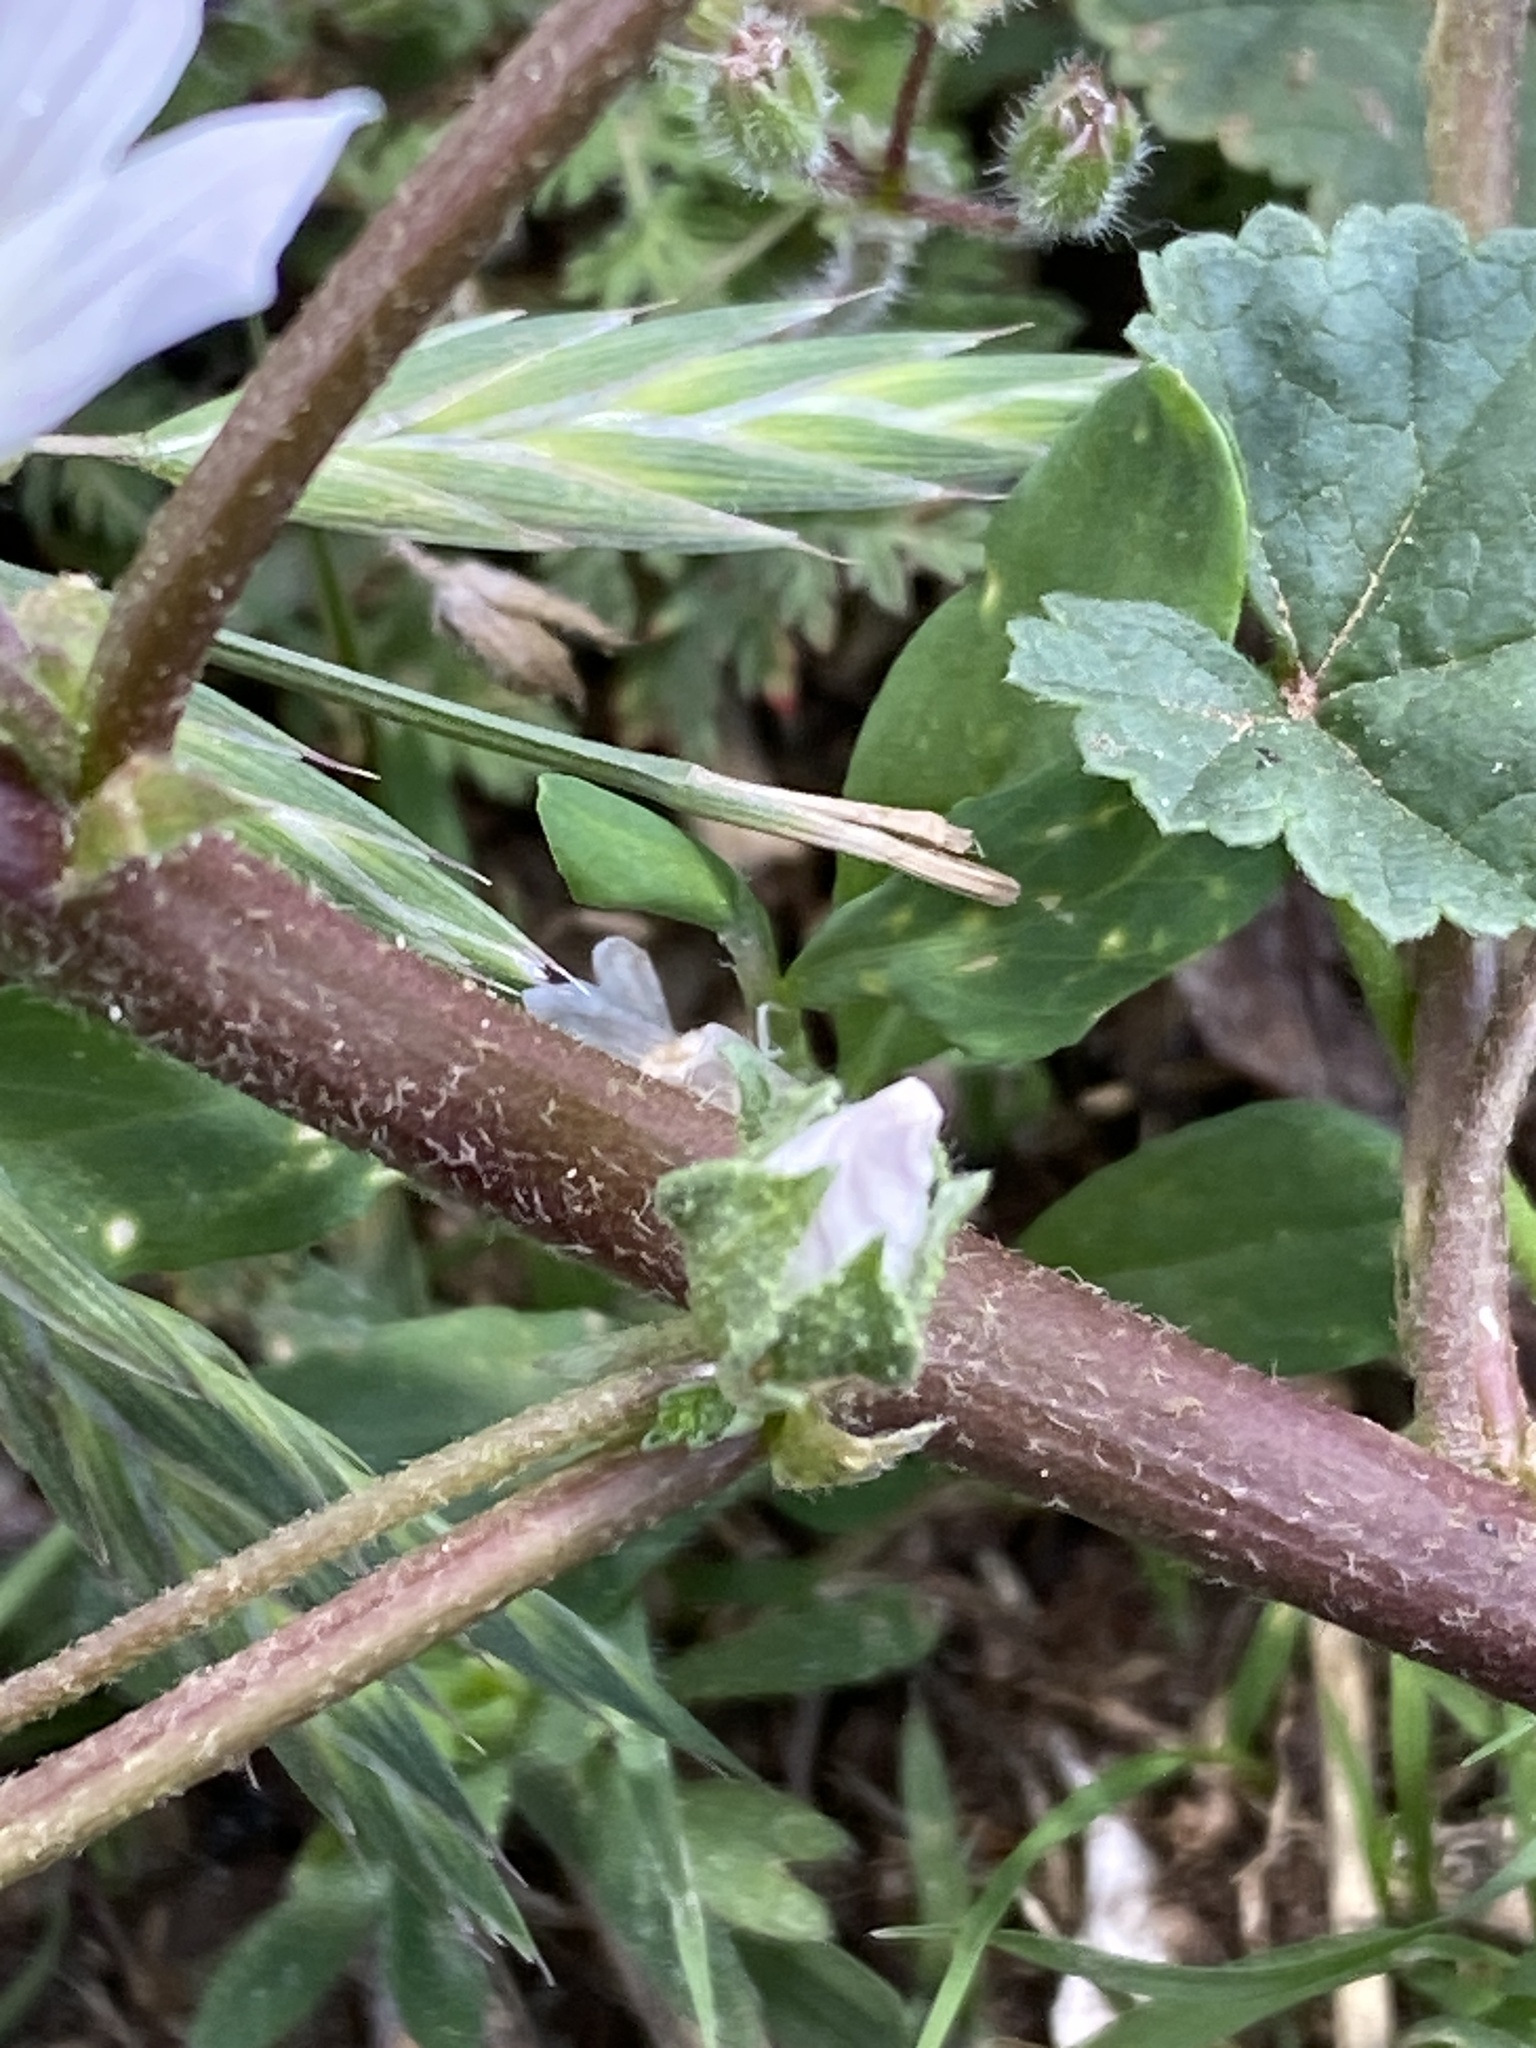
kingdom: Plantae
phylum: Tracheophyta
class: Magnoliopsida
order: Malvales
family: Malvaceae
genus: Malva
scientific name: Malva neglecta
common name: Common mallow
